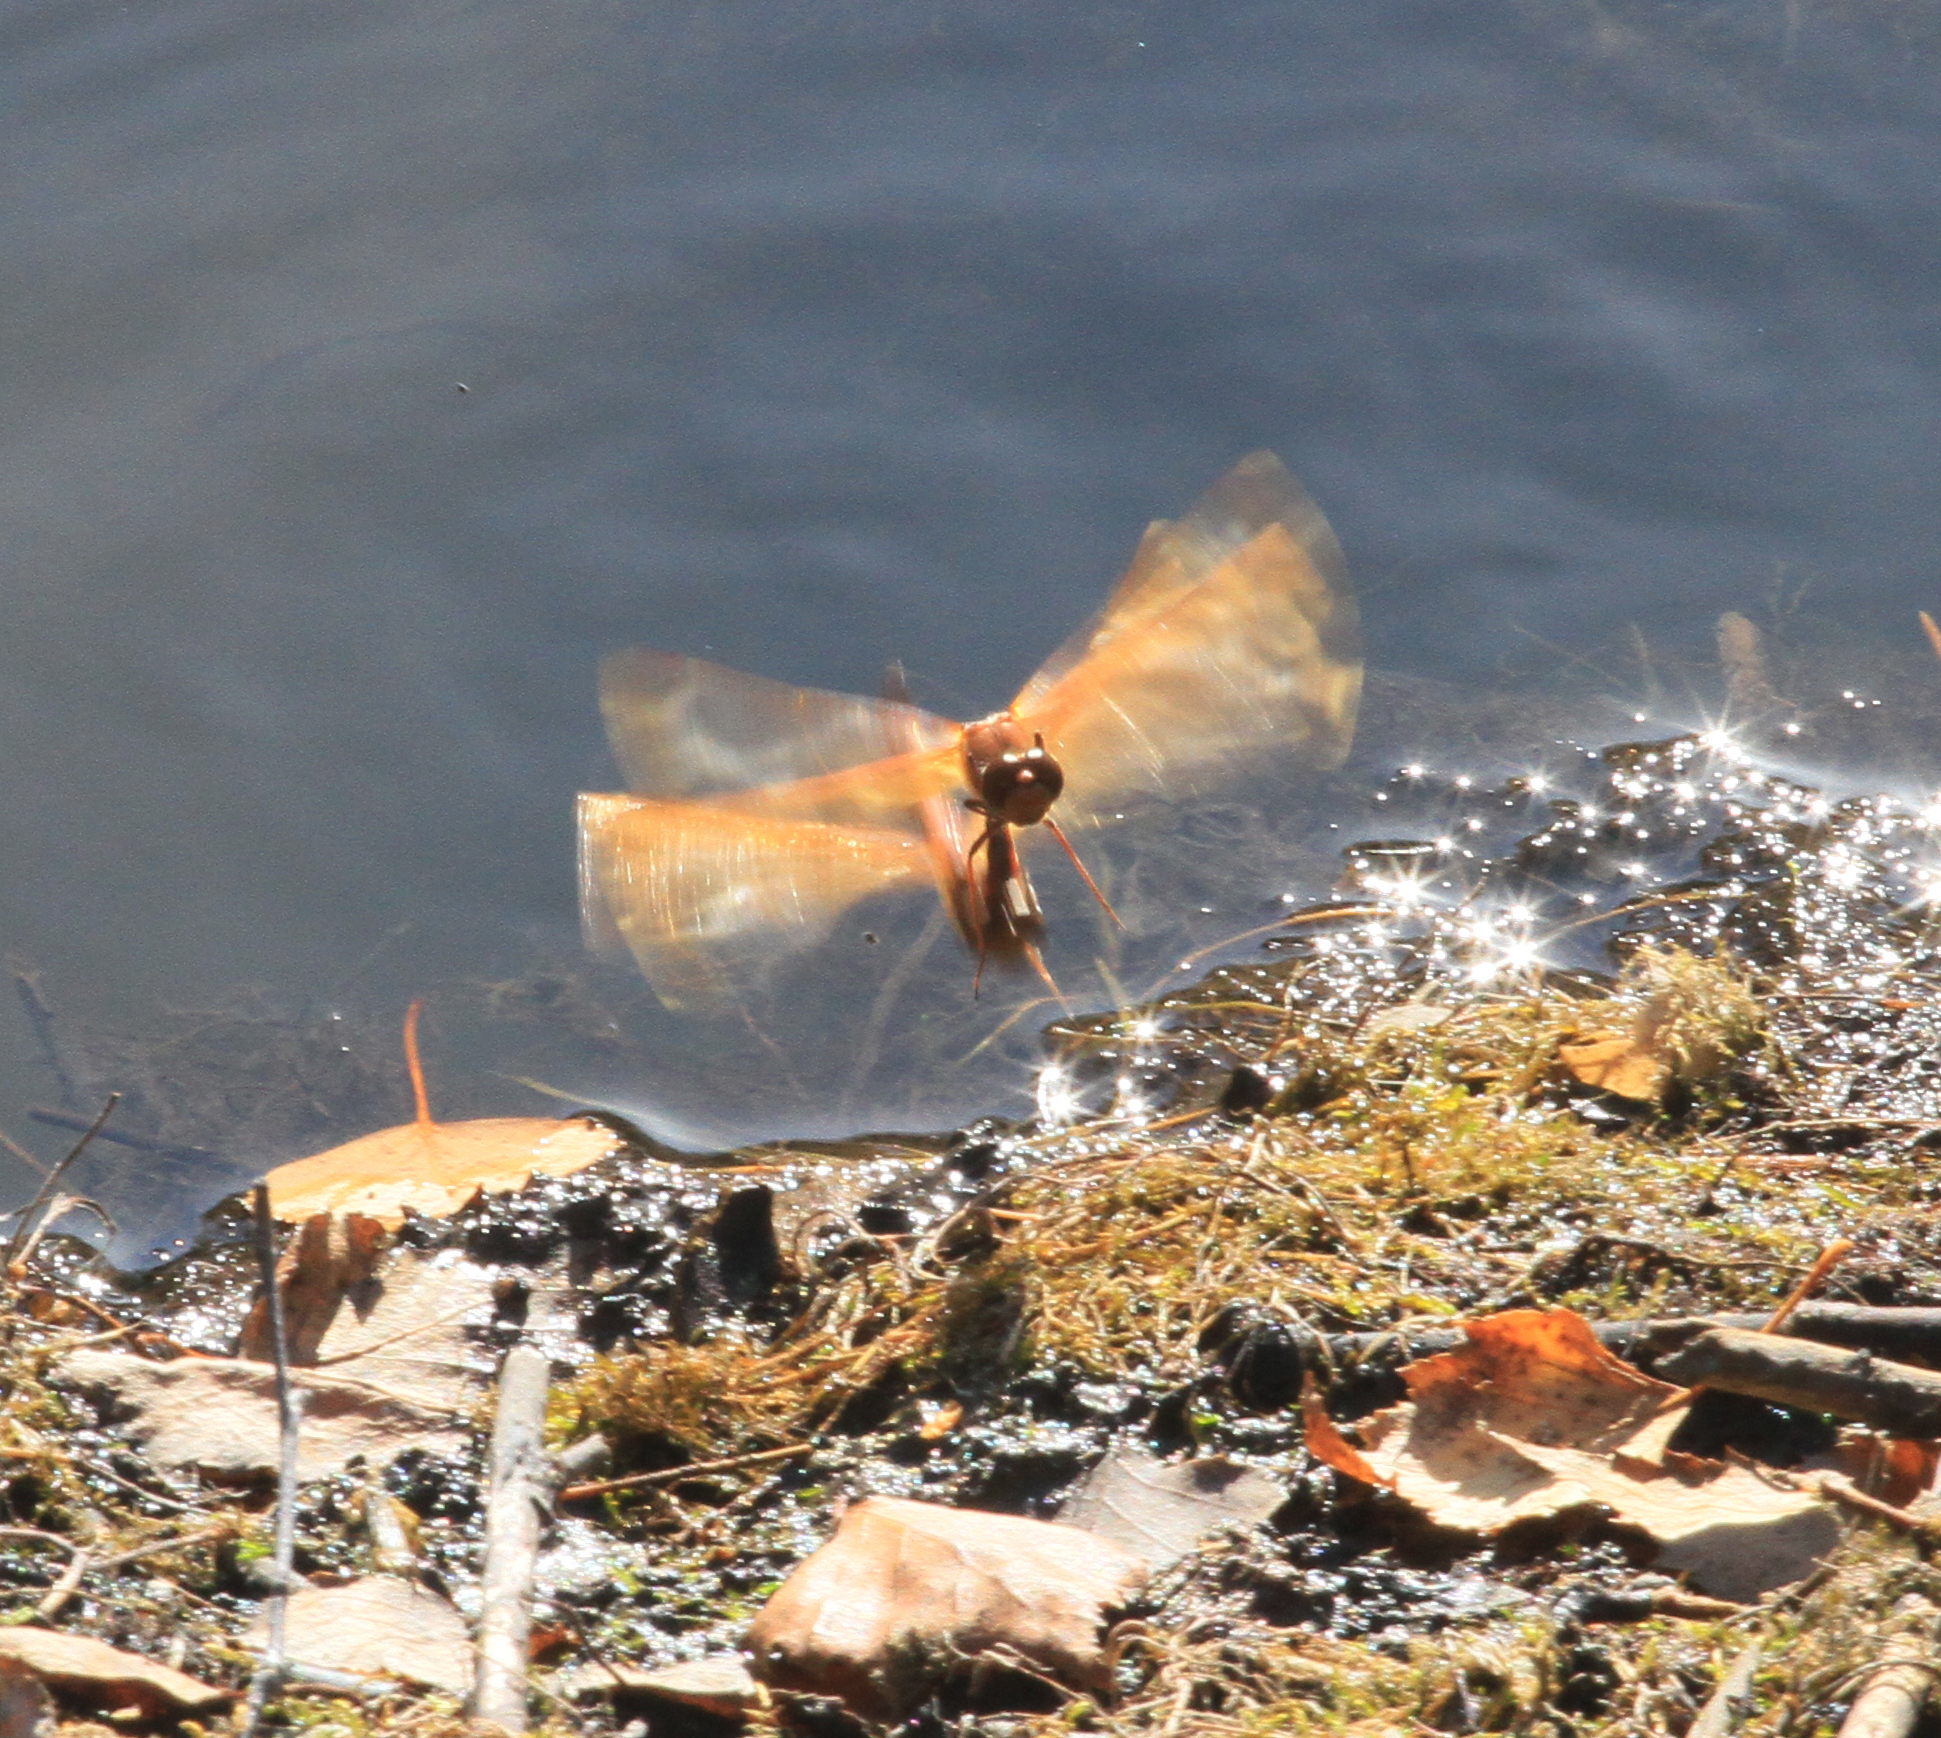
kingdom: Animalia
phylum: Arthropoda
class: Insecta
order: Odonata
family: Libellulidae
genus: Sympetrum
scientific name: Sympetrum croceolum
